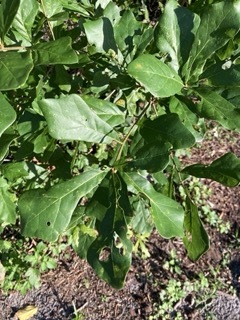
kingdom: Plantae
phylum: Tracheophyta
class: Magnoliopsida
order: Fagales
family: Fagaceae
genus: Quercus
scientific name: Quercus nigra
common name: Water oak
